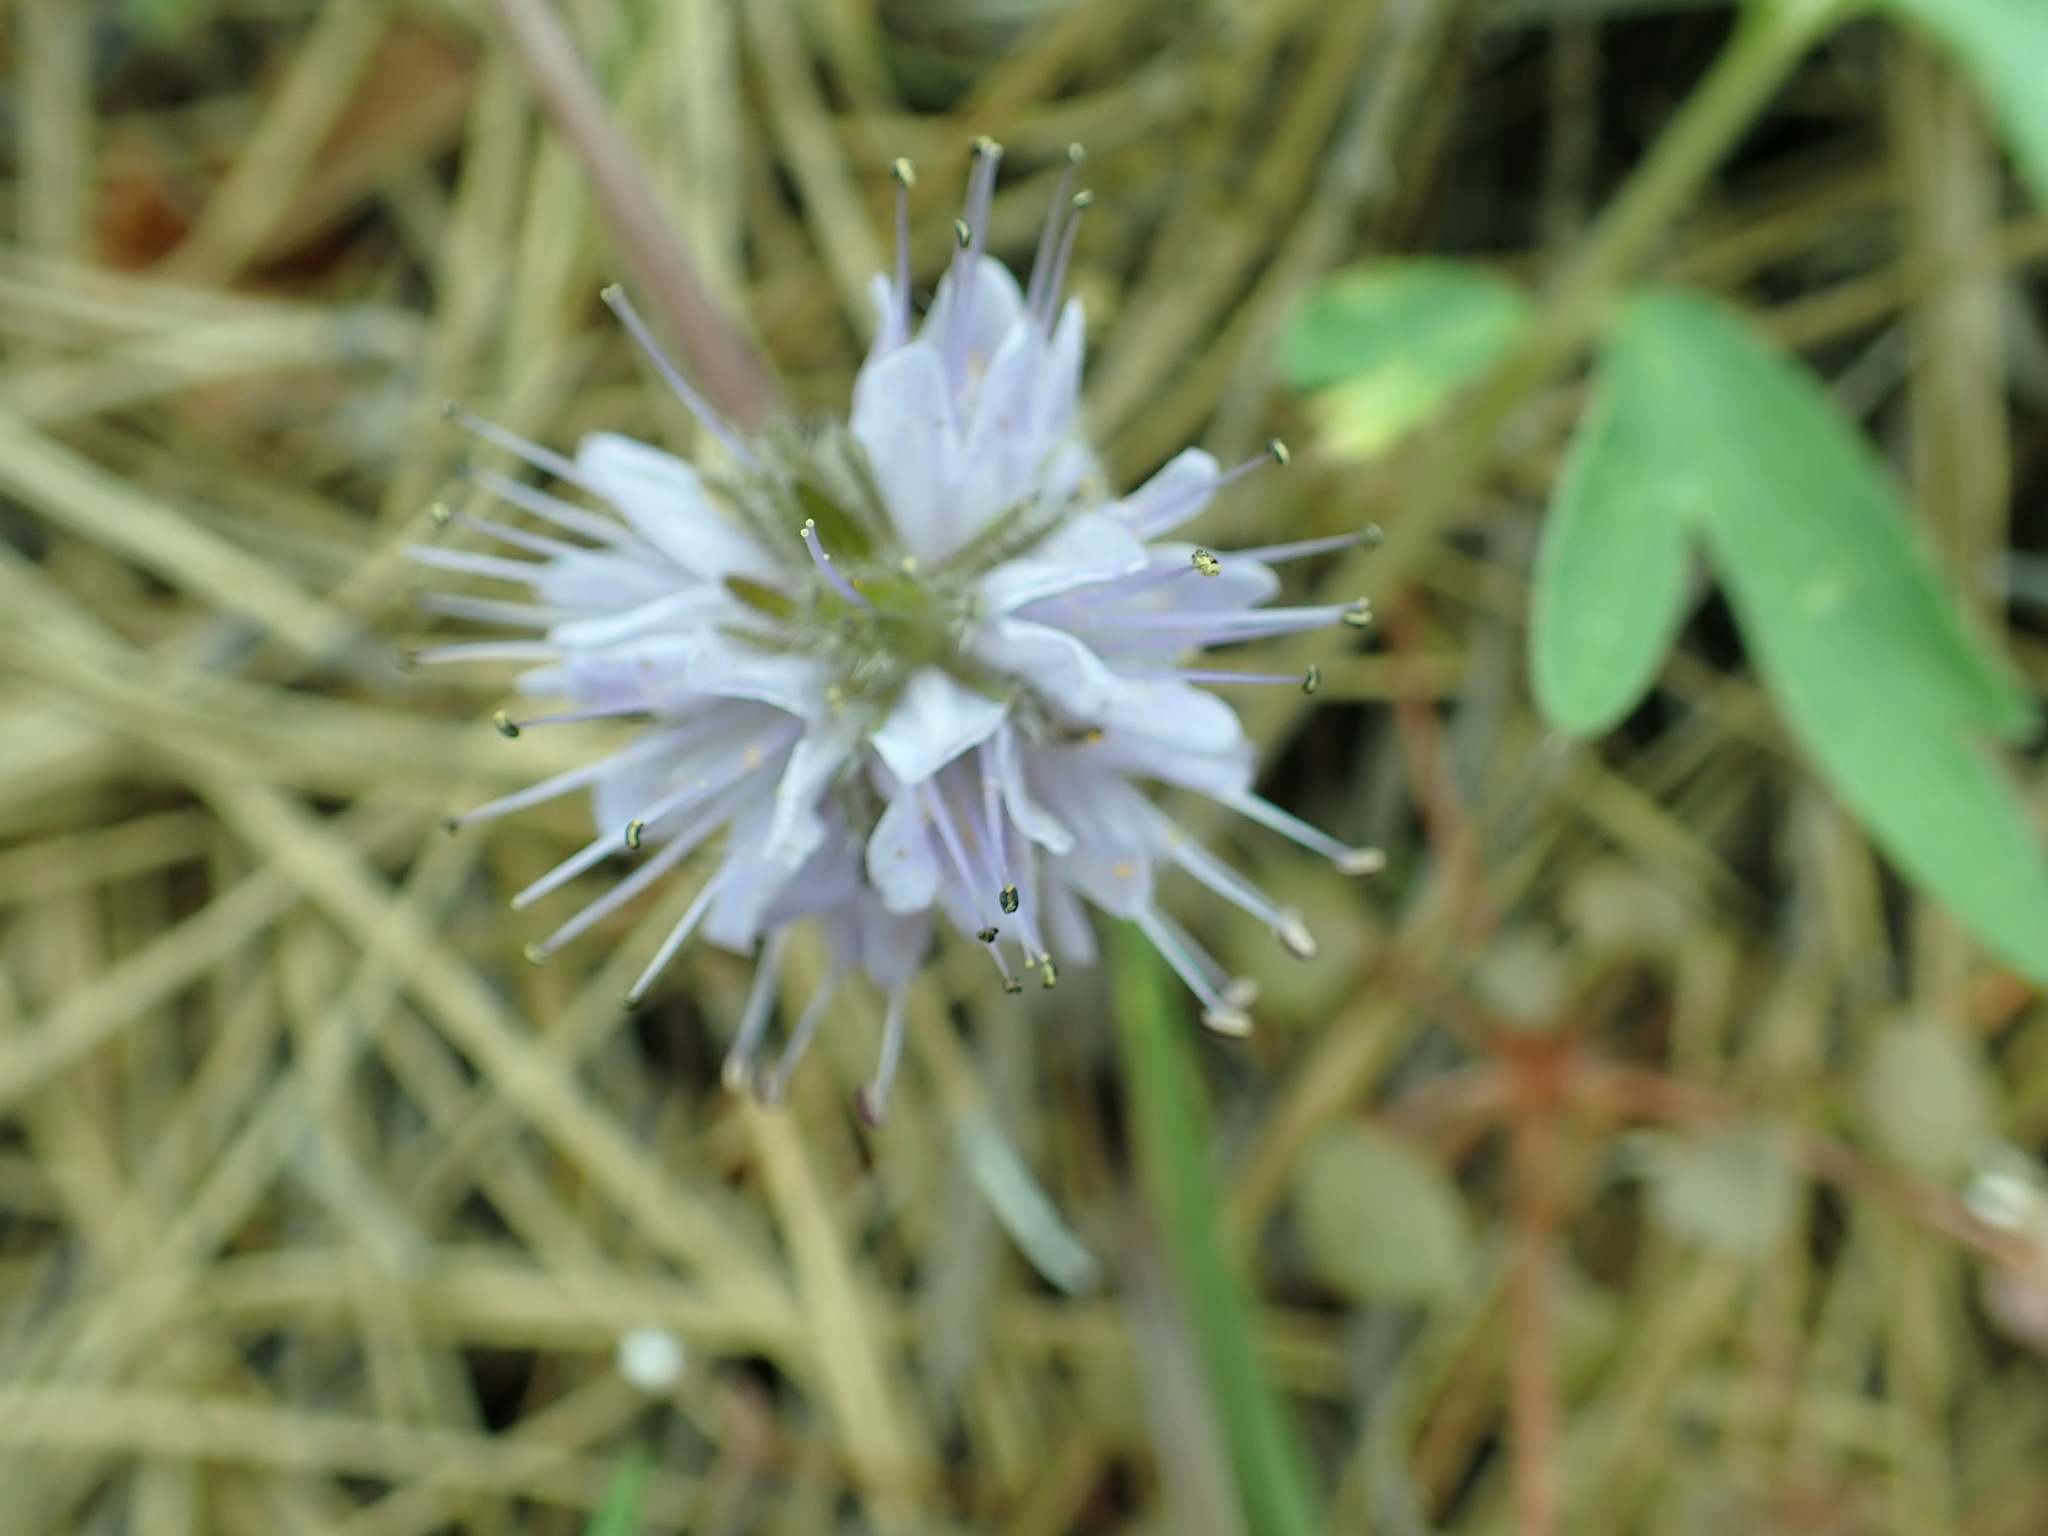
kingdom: Plantae
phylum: Tracheophyta
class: Magnoliopsida
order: Boraginales
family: Hydrophyllaceae
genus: Hydrophyllum
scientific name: Hydrophyllum capitatum
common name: Woollen-breeches
